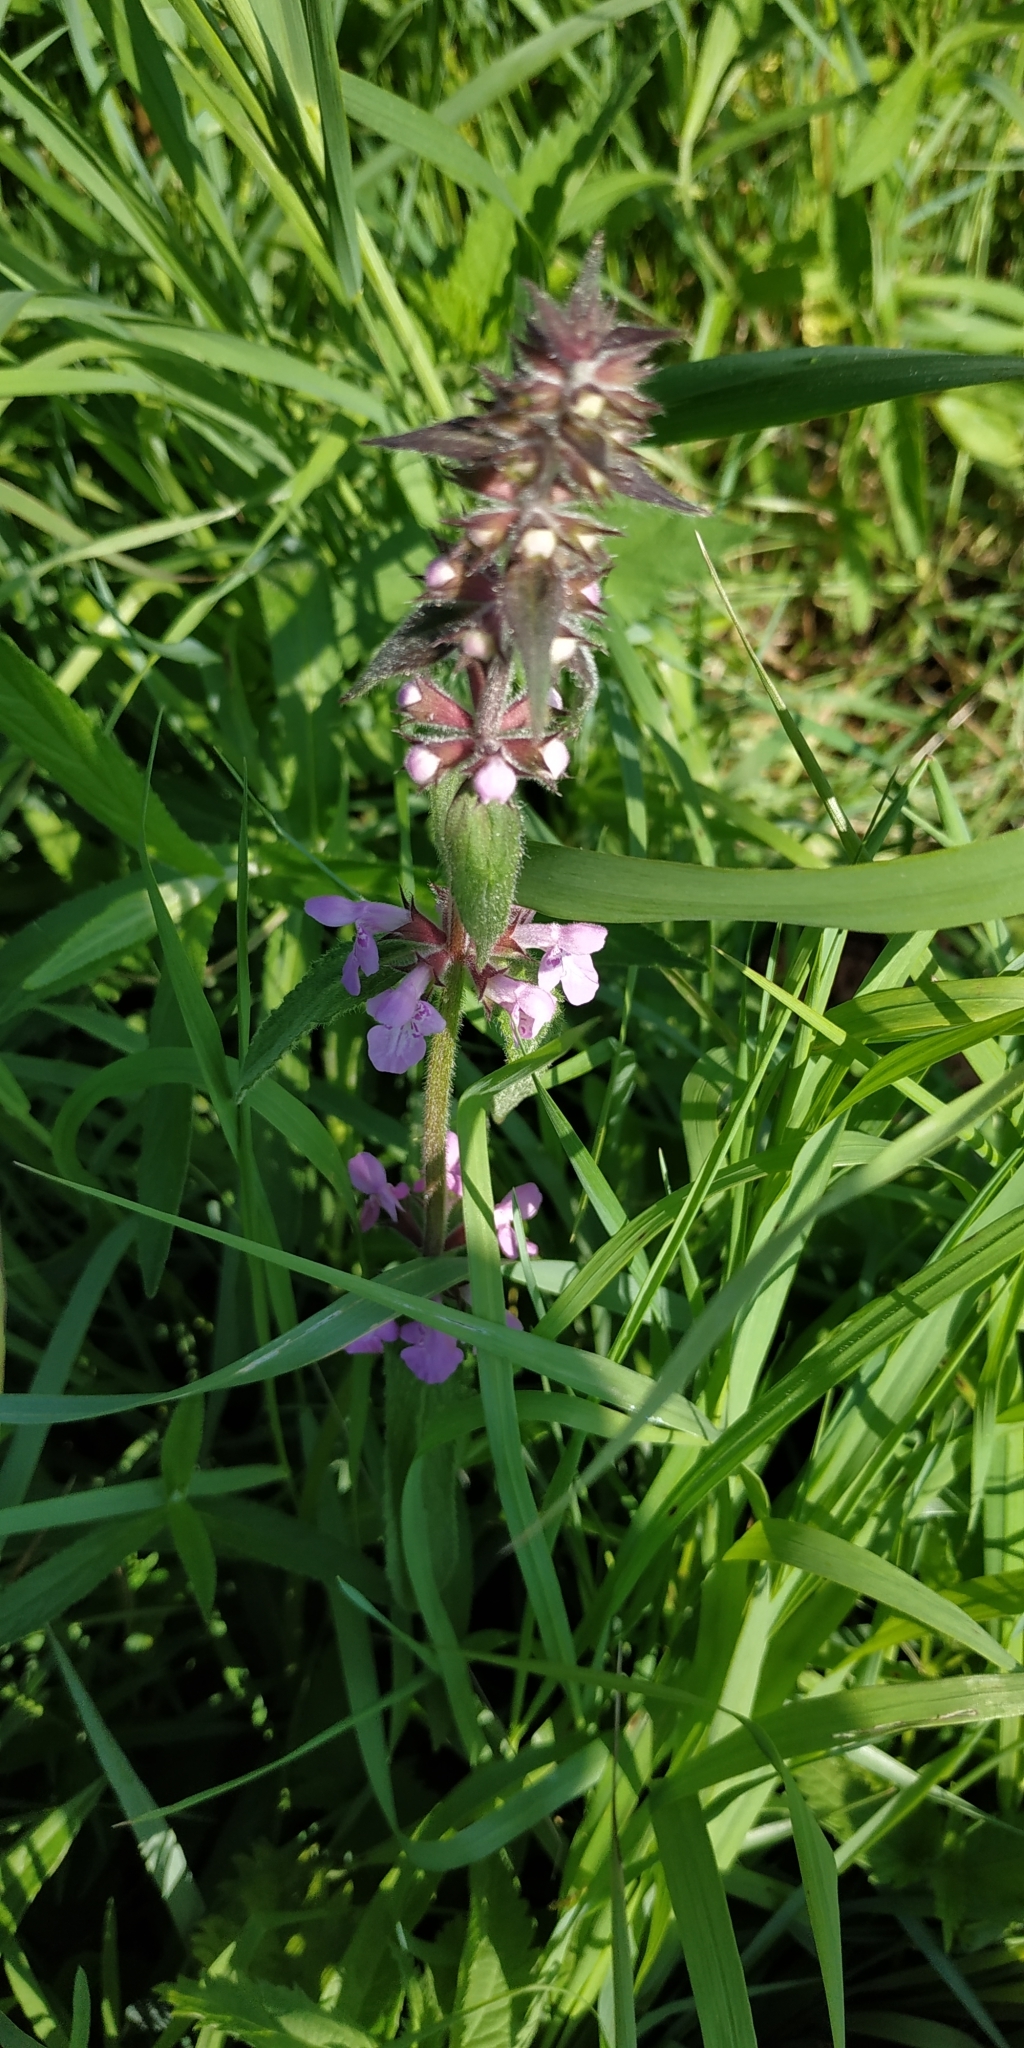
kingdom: Plantae
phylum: Tracheophyta
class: Magnoliopsida
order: Lamiales
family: Lamiaceae
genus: Stachys
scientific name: Stachys palustris
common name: Marsh woundwort
